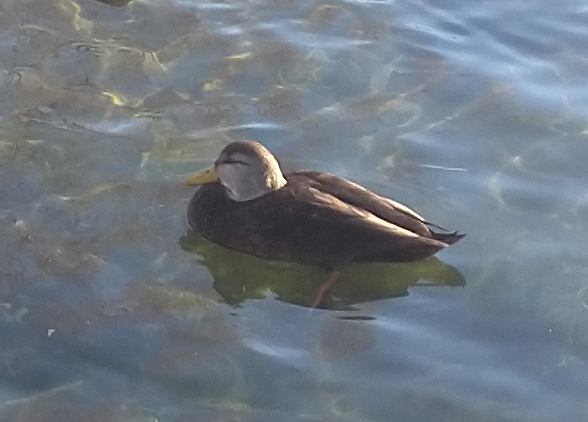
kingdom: Animalia
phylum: Chordata
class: Aves
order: Anseriformes
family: Anatidae
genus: Anas
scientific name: Anas rubripes
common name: American black duck
